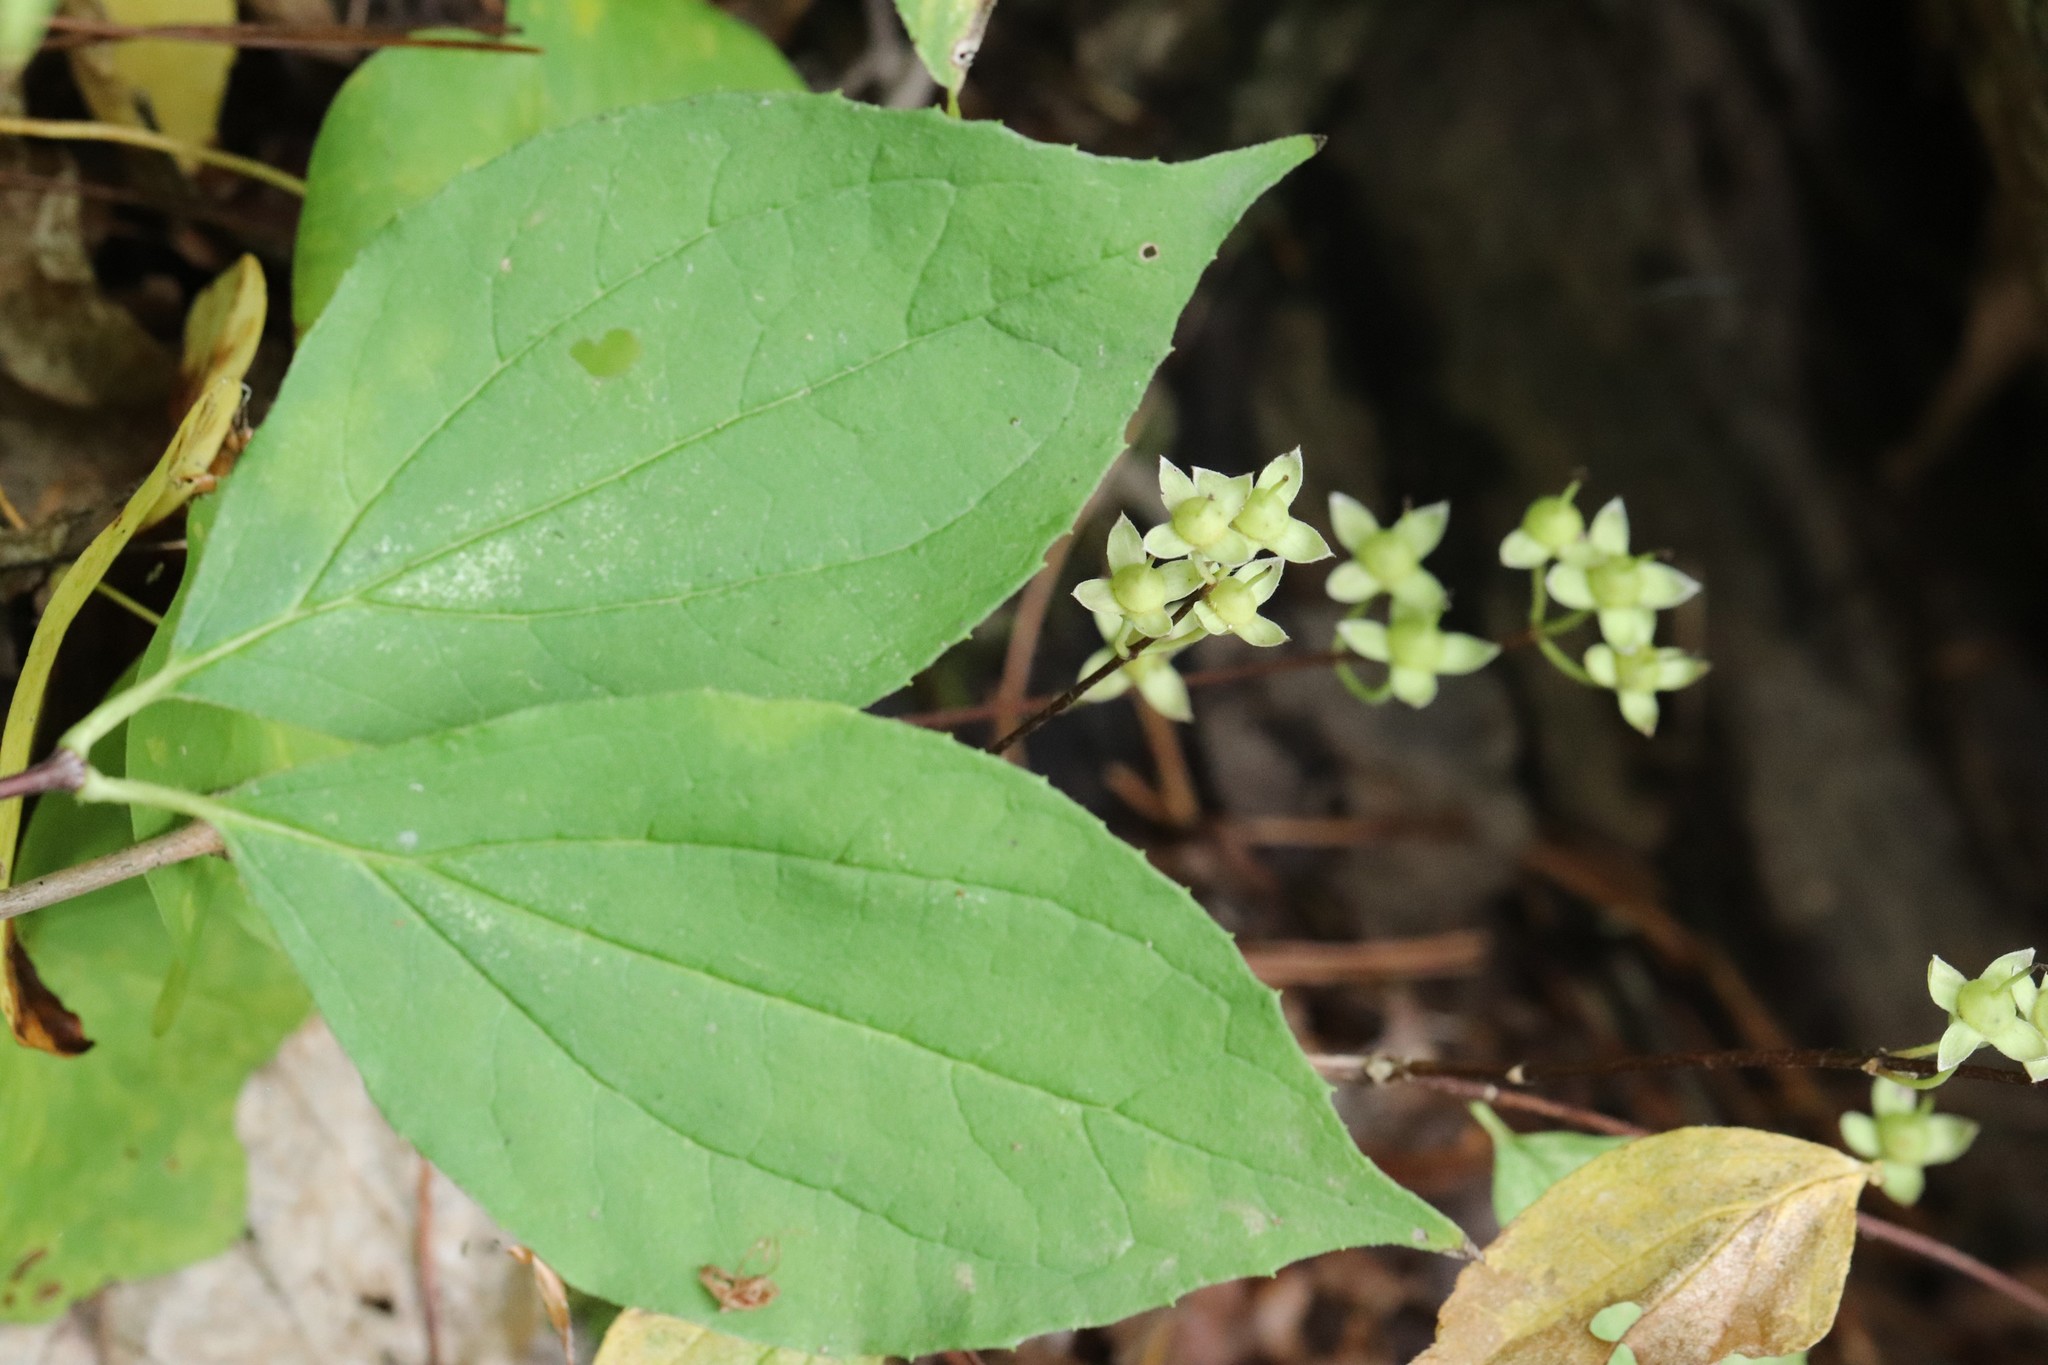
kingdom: Plantae
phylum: Tracheophyta
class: Magnoliopsida
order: Cornales
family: Hydrangeaceae
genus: Philadelphus
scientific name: Philadelphus tenuifolius
